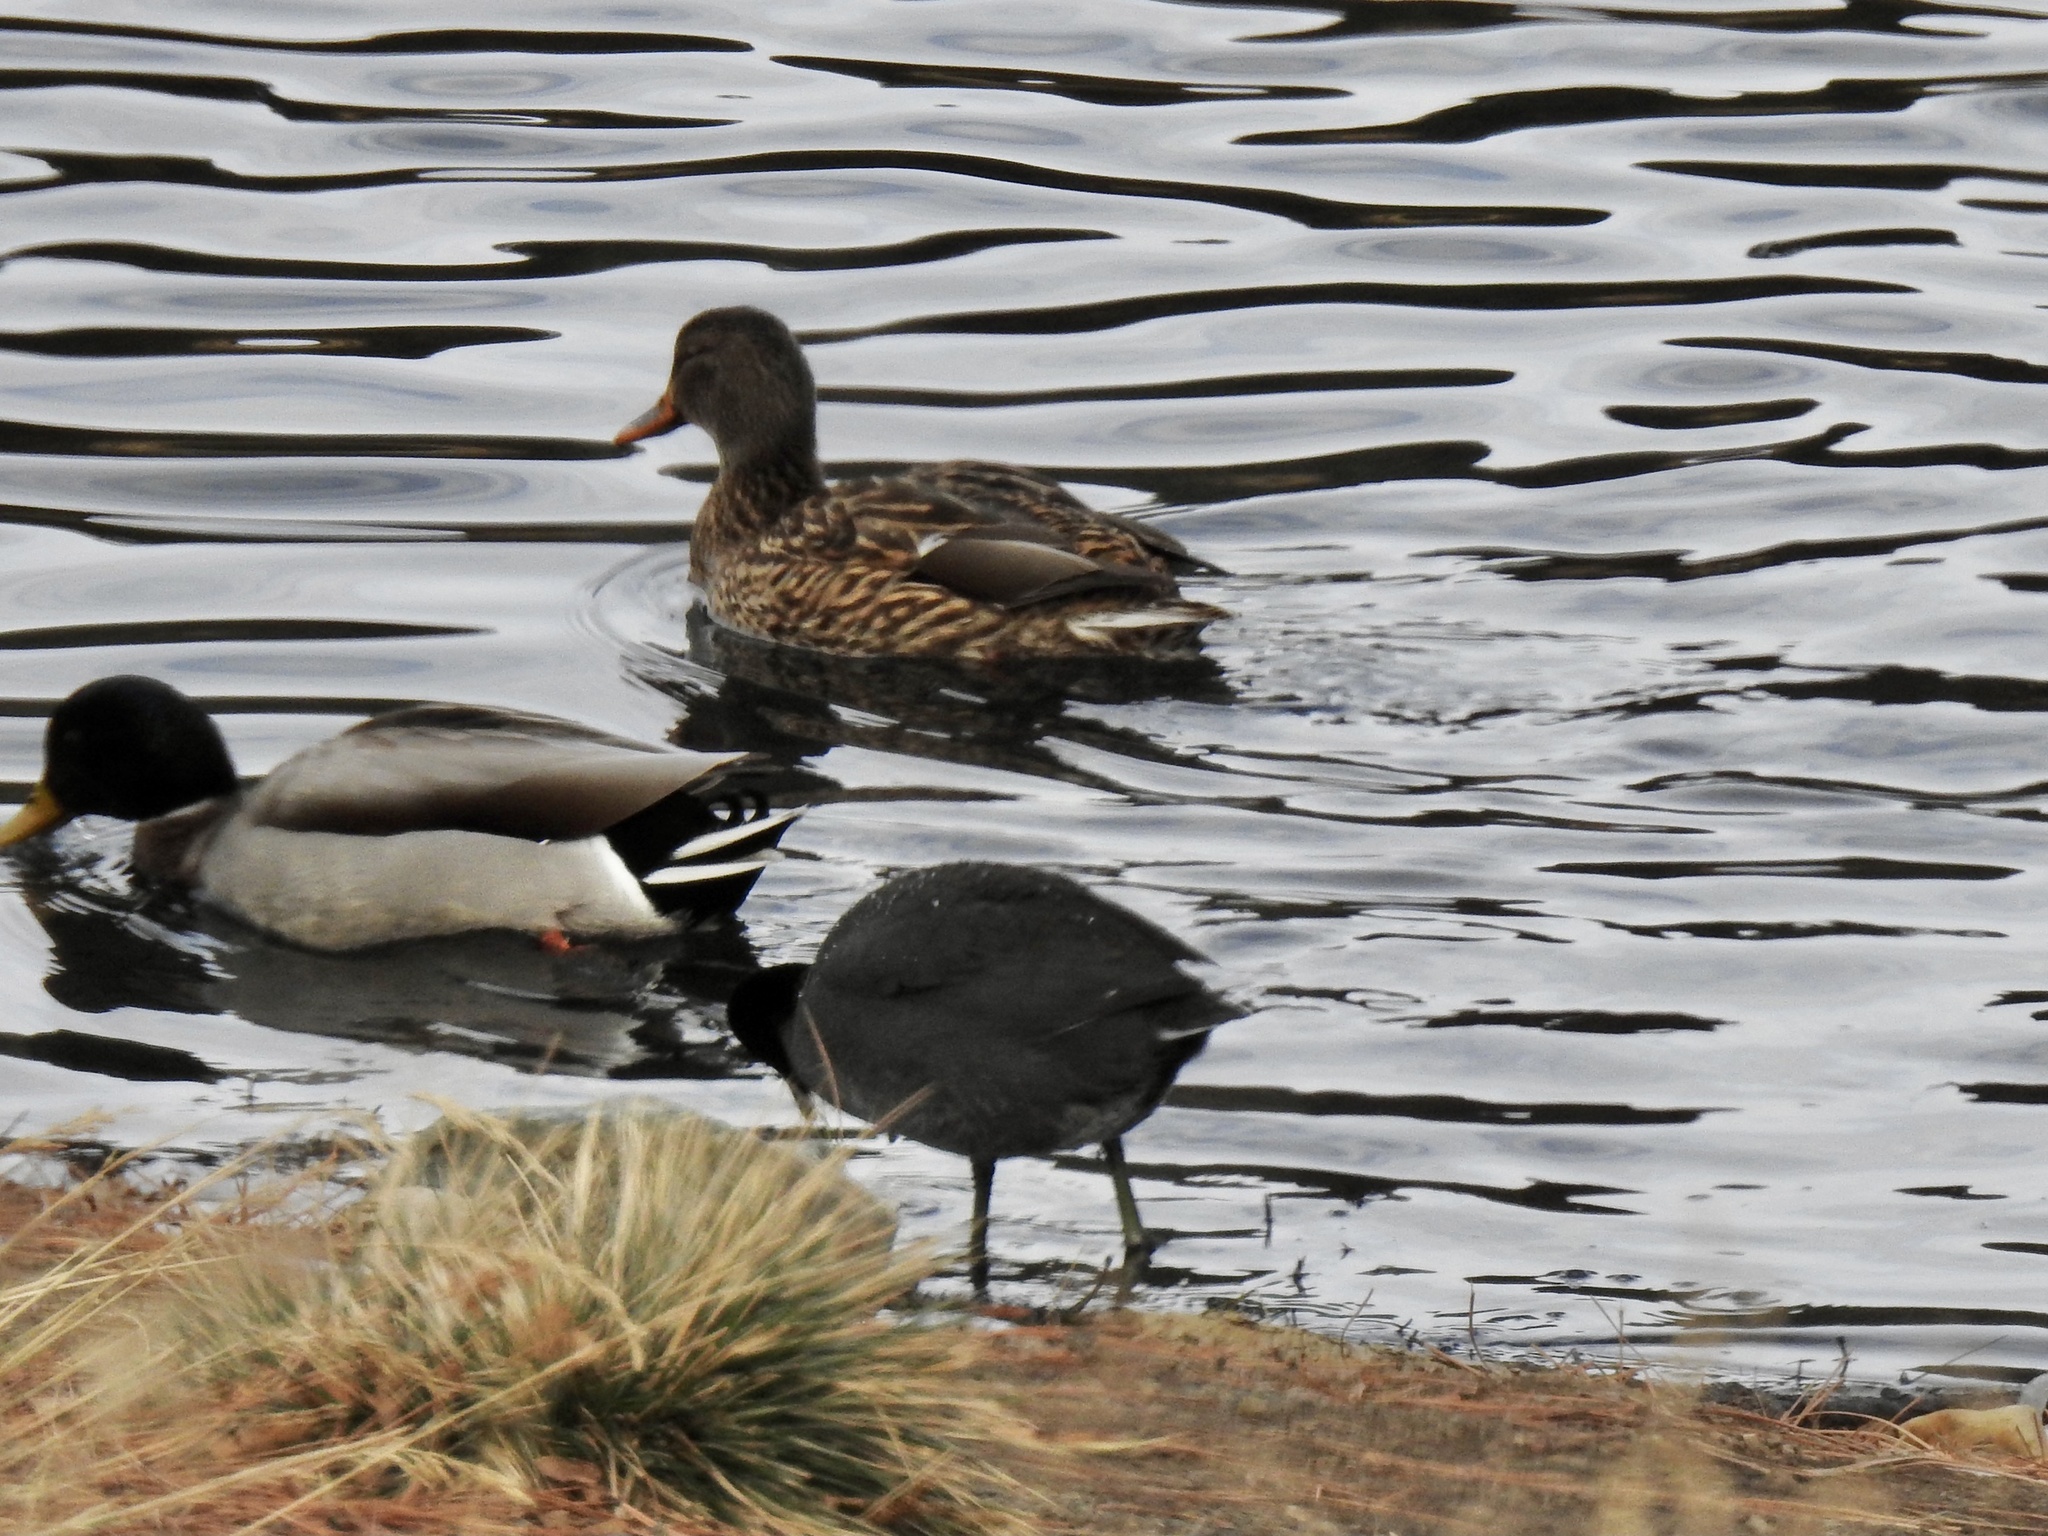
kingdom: Animalia
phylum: Chordata
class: Aves
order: Anseriformes
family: Anatidae
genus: Anas
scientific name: Anas platyrhynchos
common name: Mallard
